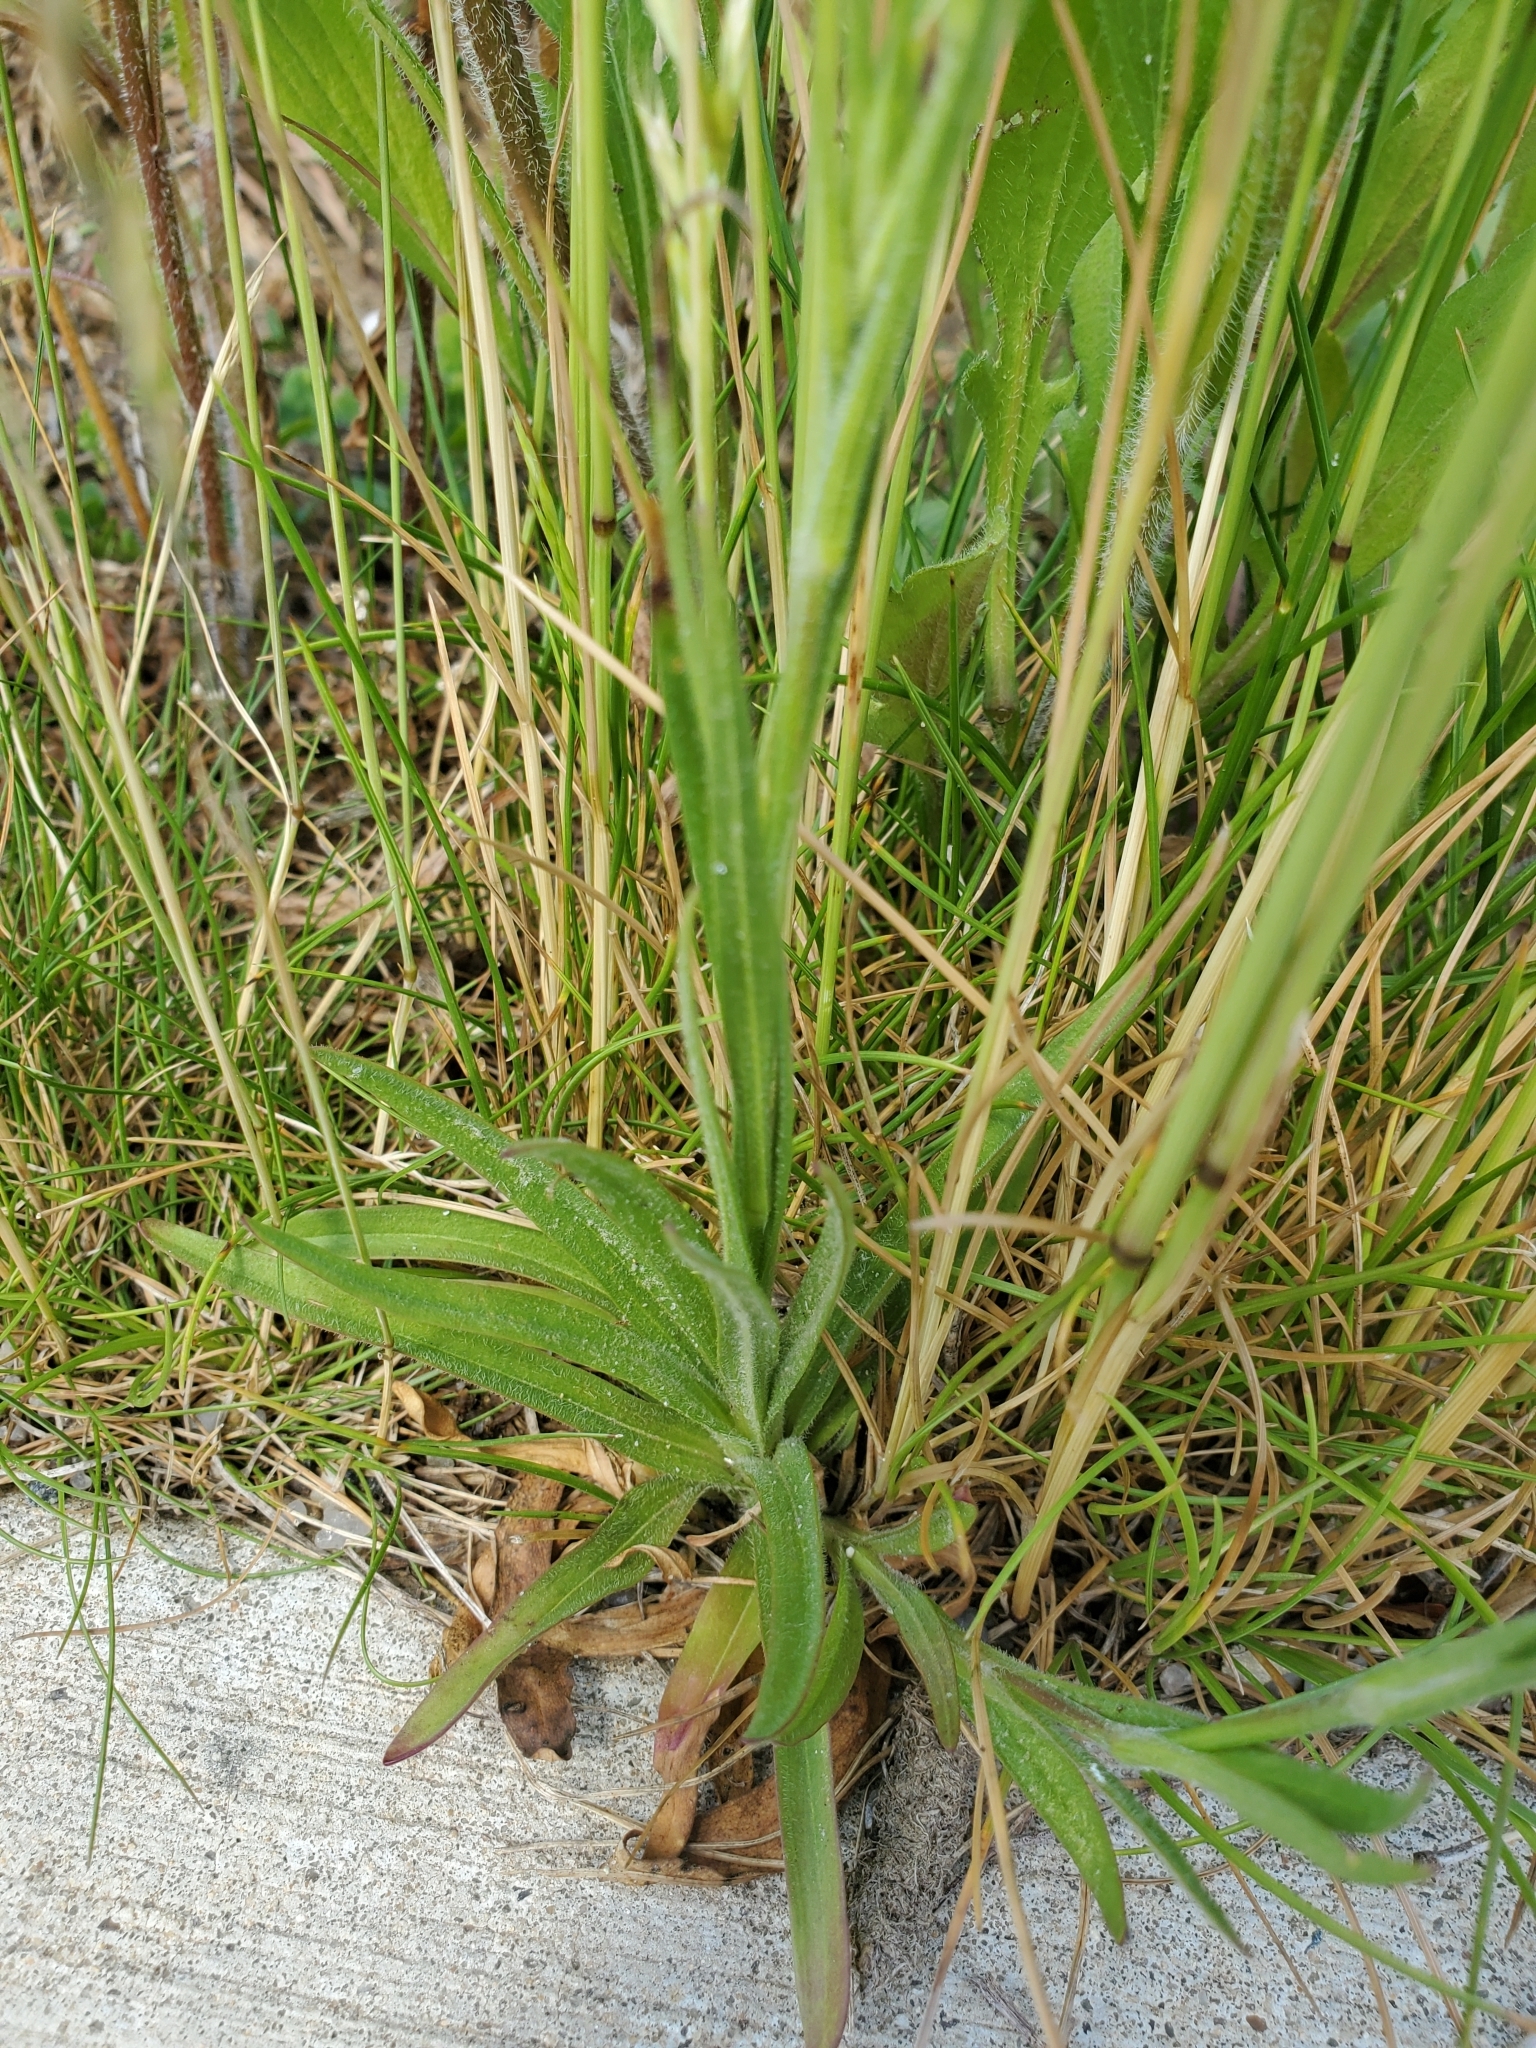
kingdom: Plantae
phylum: Tracheophyta
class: Magnoliopsida
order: Caryophyllales
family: Caryophyllaceae
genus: Dianthus
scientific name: Dianthus armeria
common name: Deptford pink
